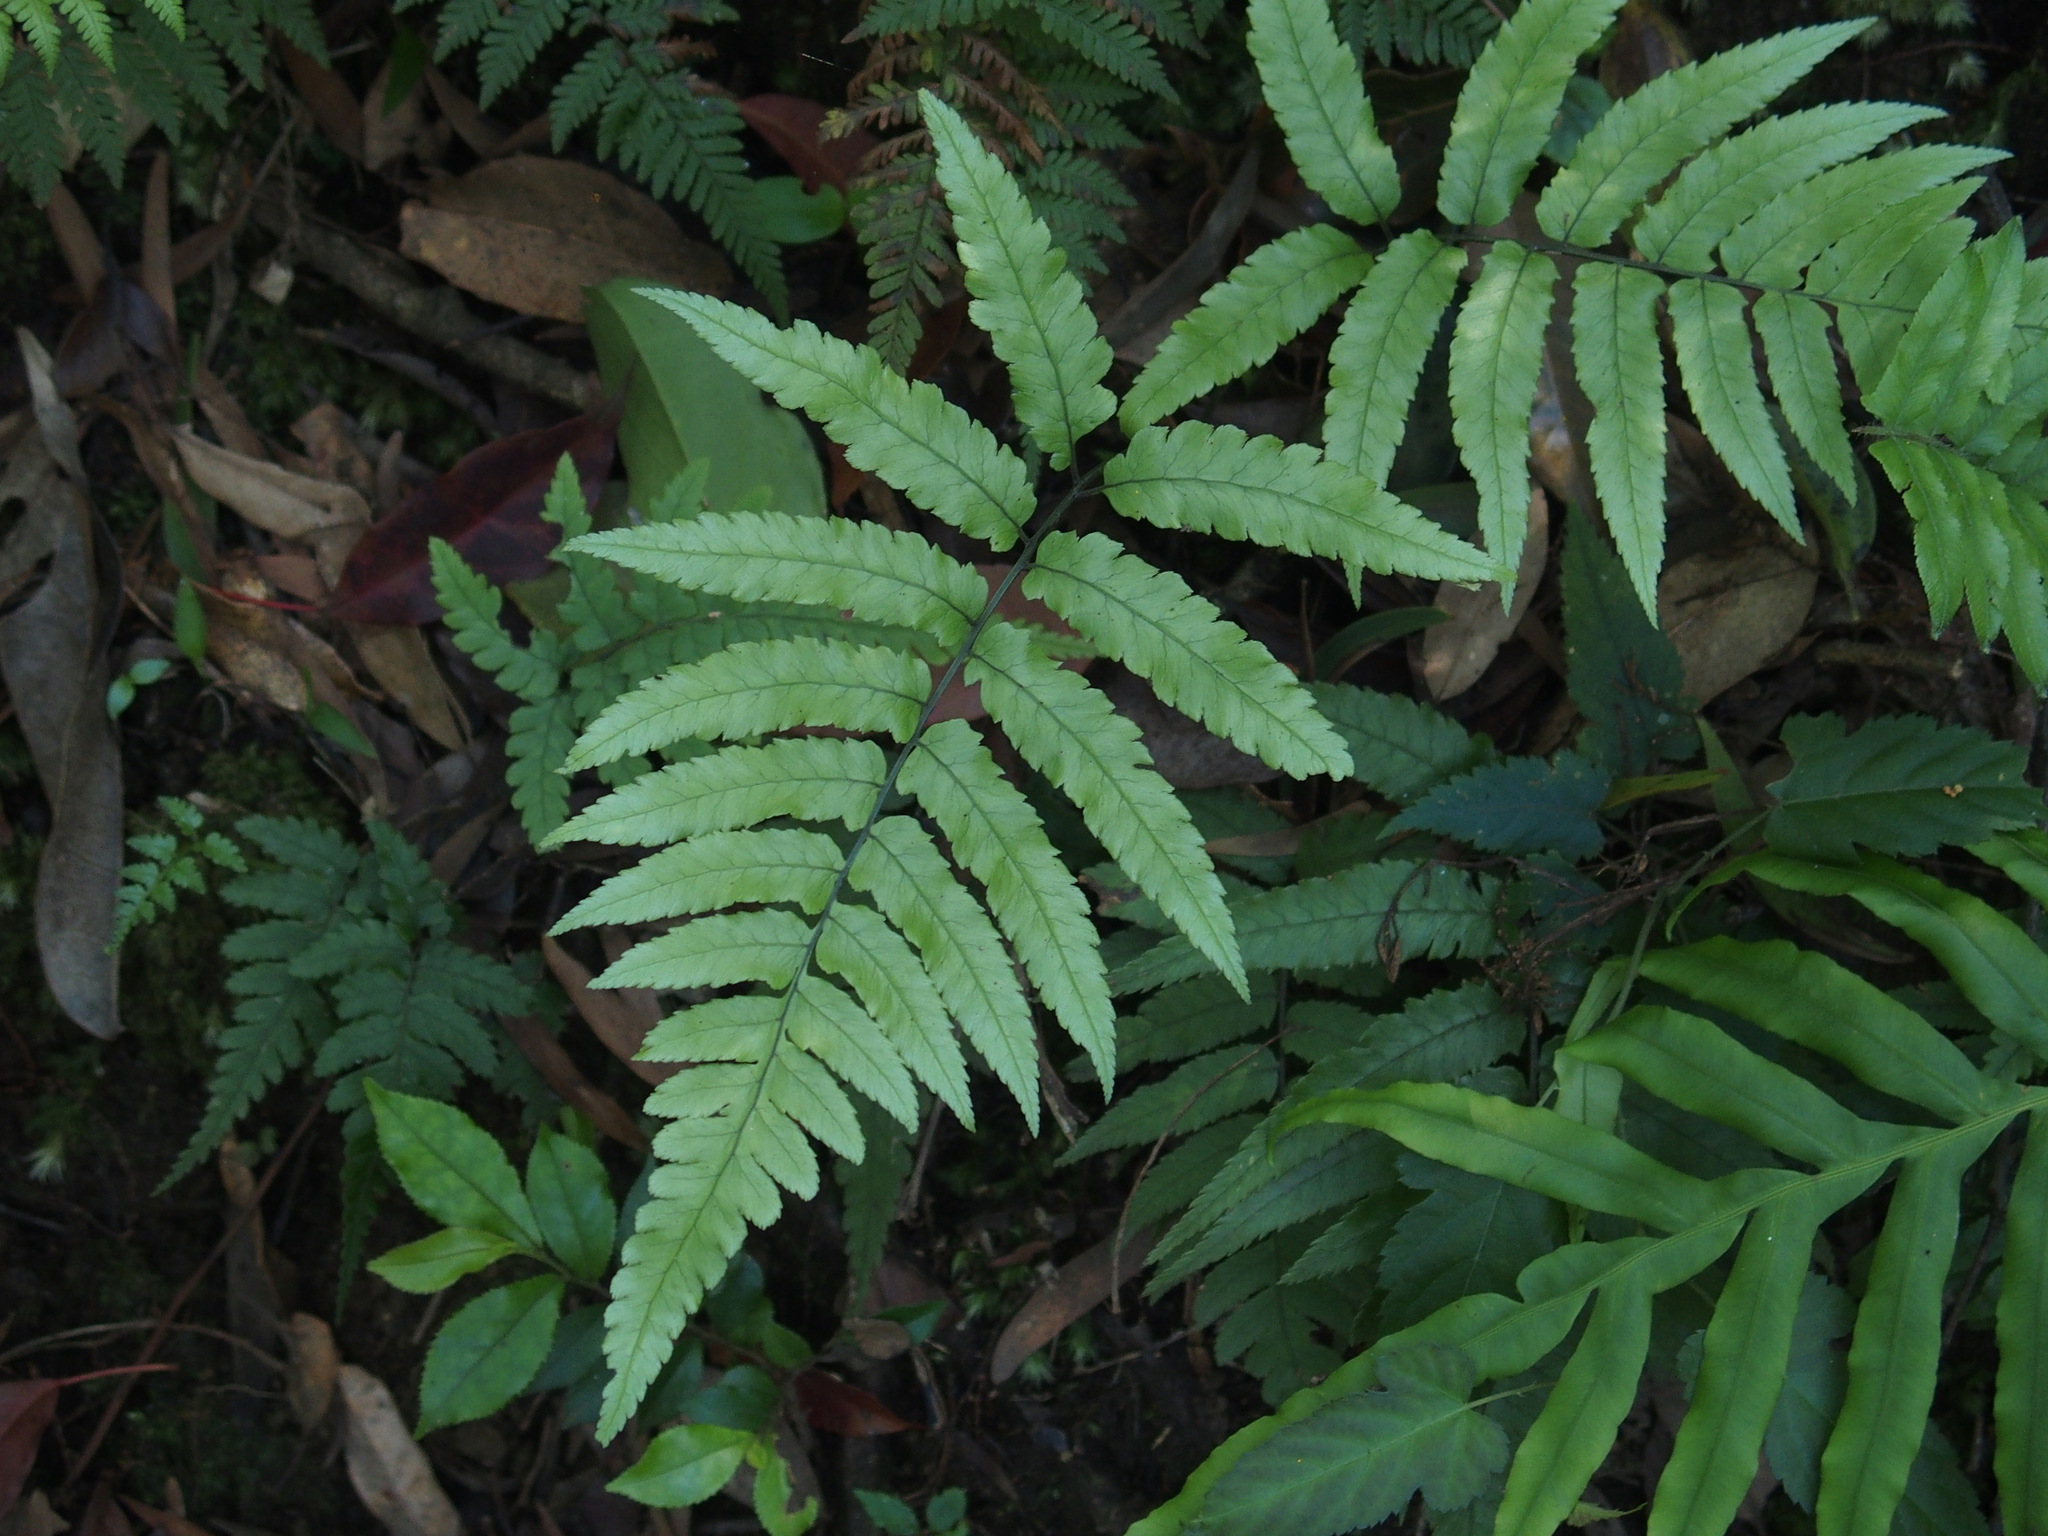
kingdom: Plantae
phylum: Tracheophyta
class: Polypodiopsida
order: Polypodiales
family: Athyriaceae
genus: Diplazium
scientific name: Diplazium fauriei
